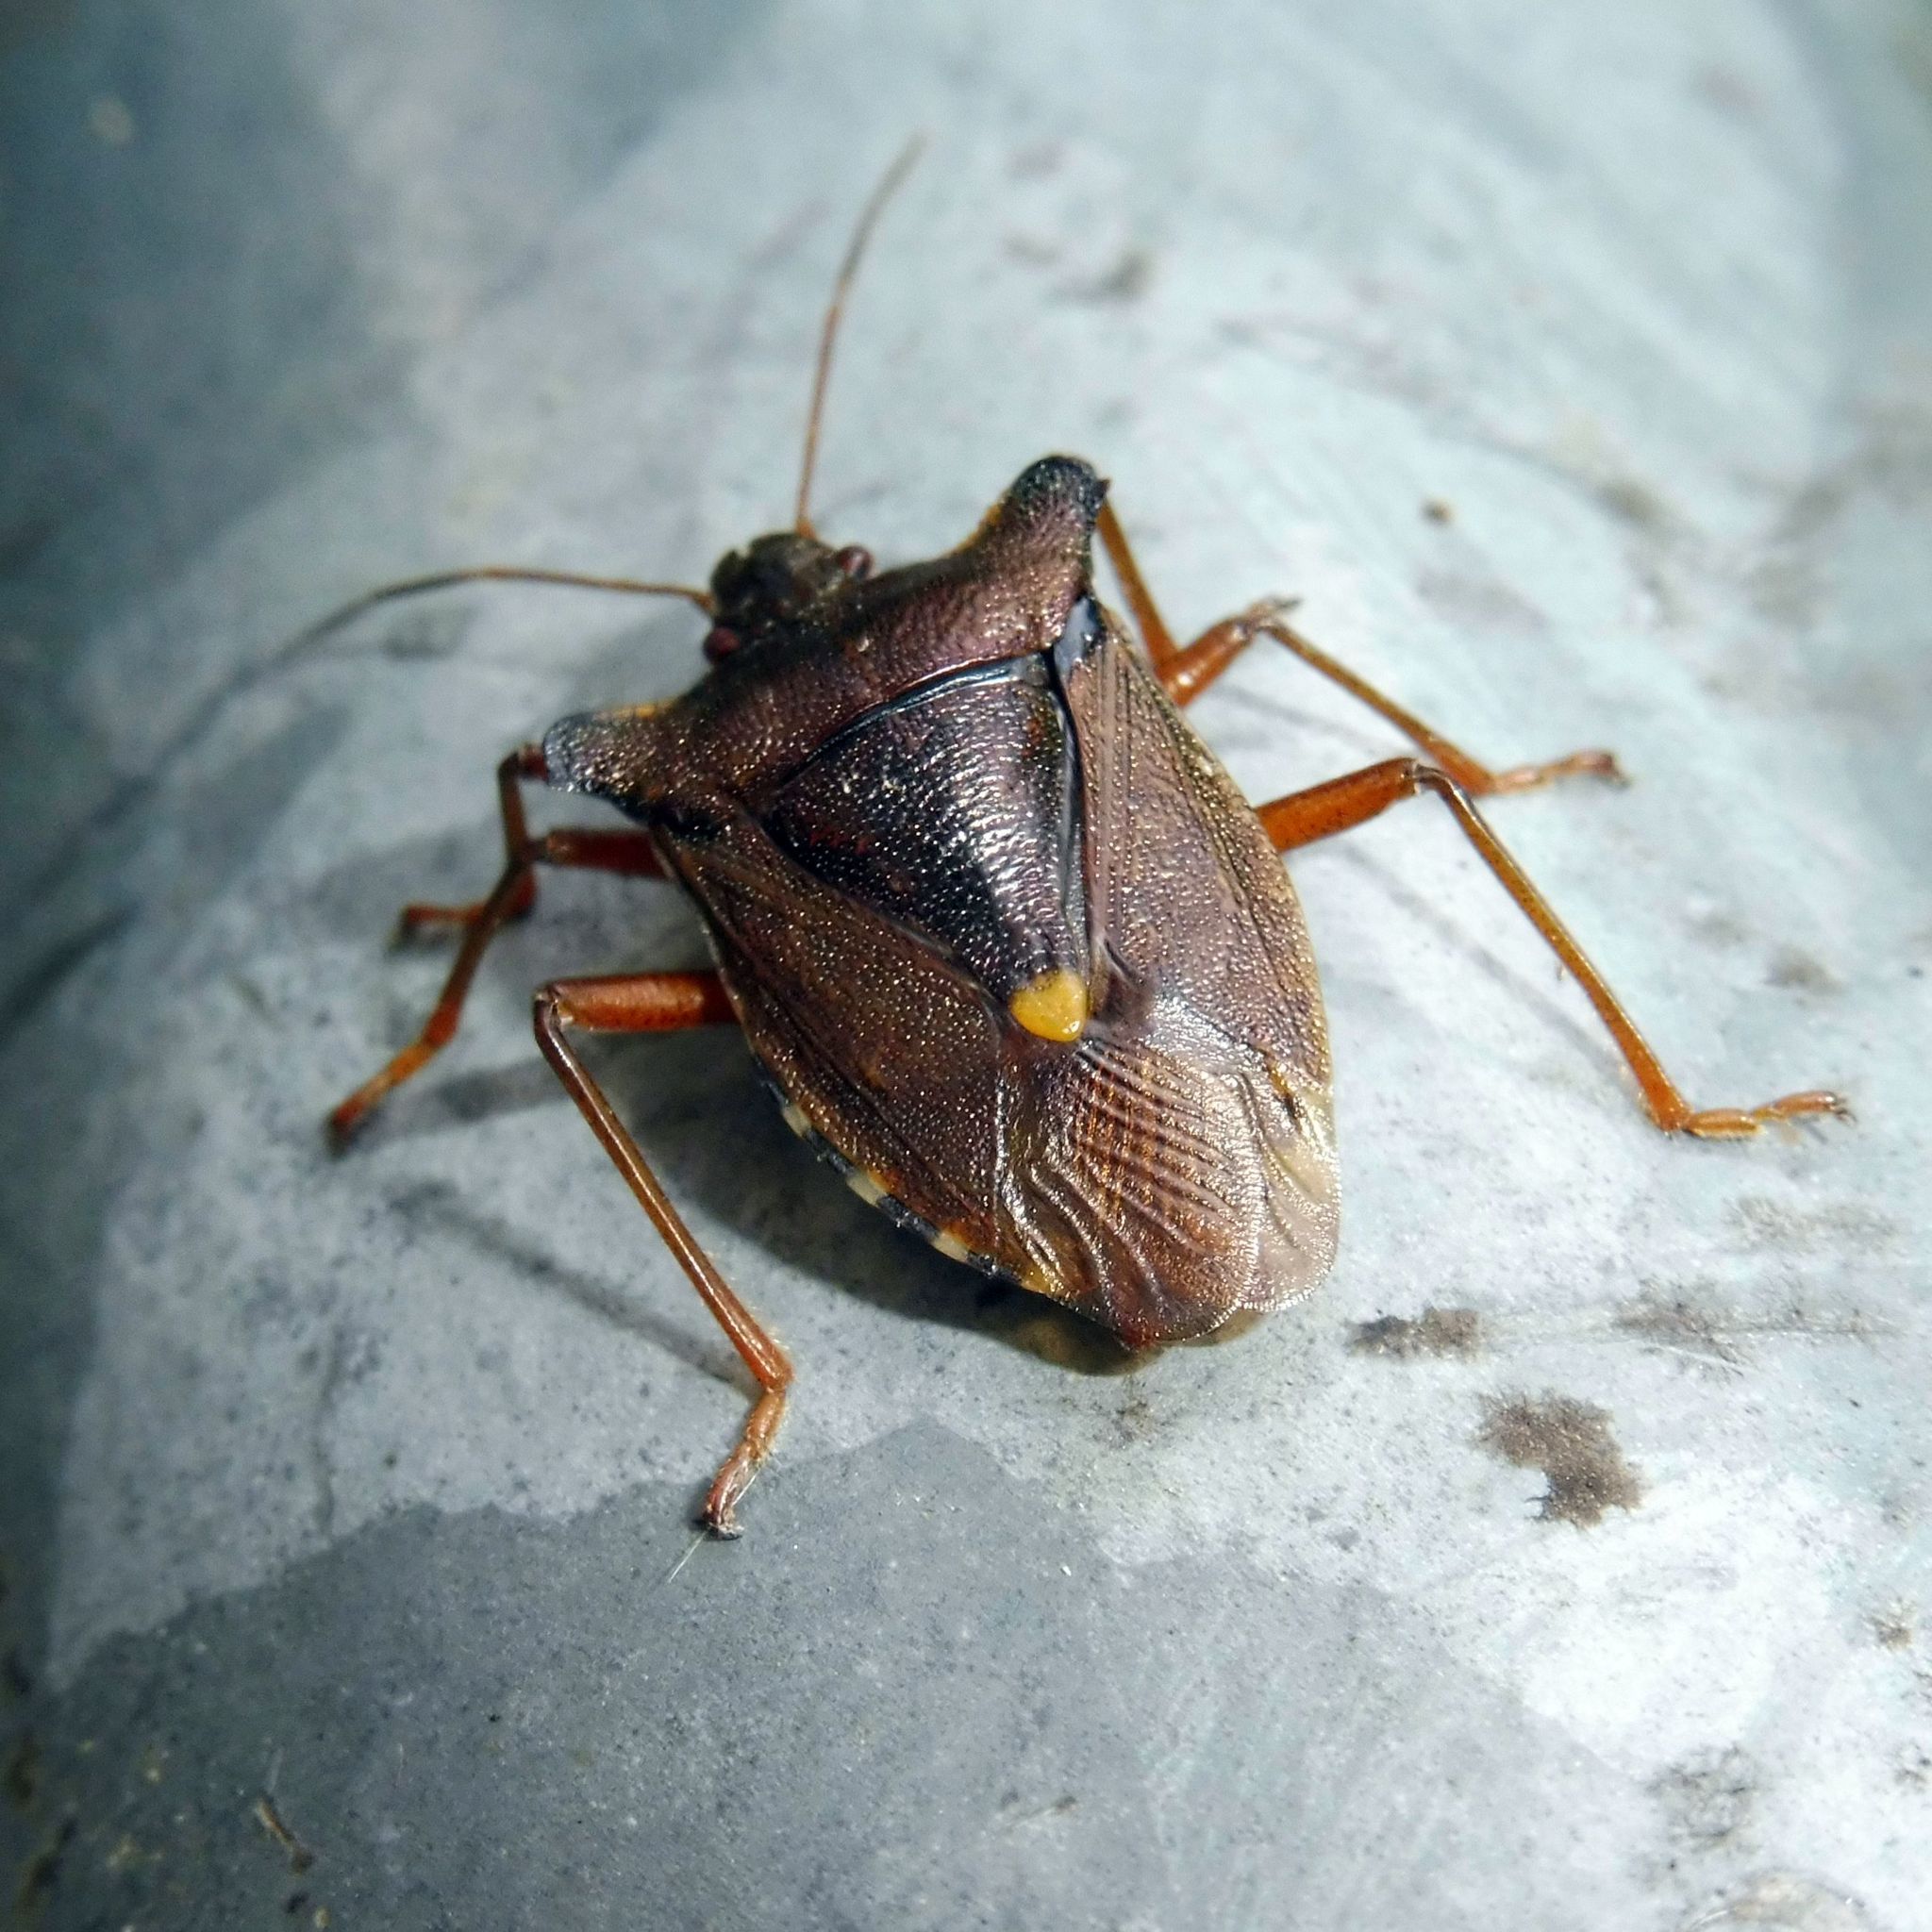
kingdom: Animalia
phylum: Arthropoda
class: Insecta
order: Hemiptera
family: Pentatomidae
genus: Pentatoma
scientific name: Pentatoma rufipes
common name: Forest bug
